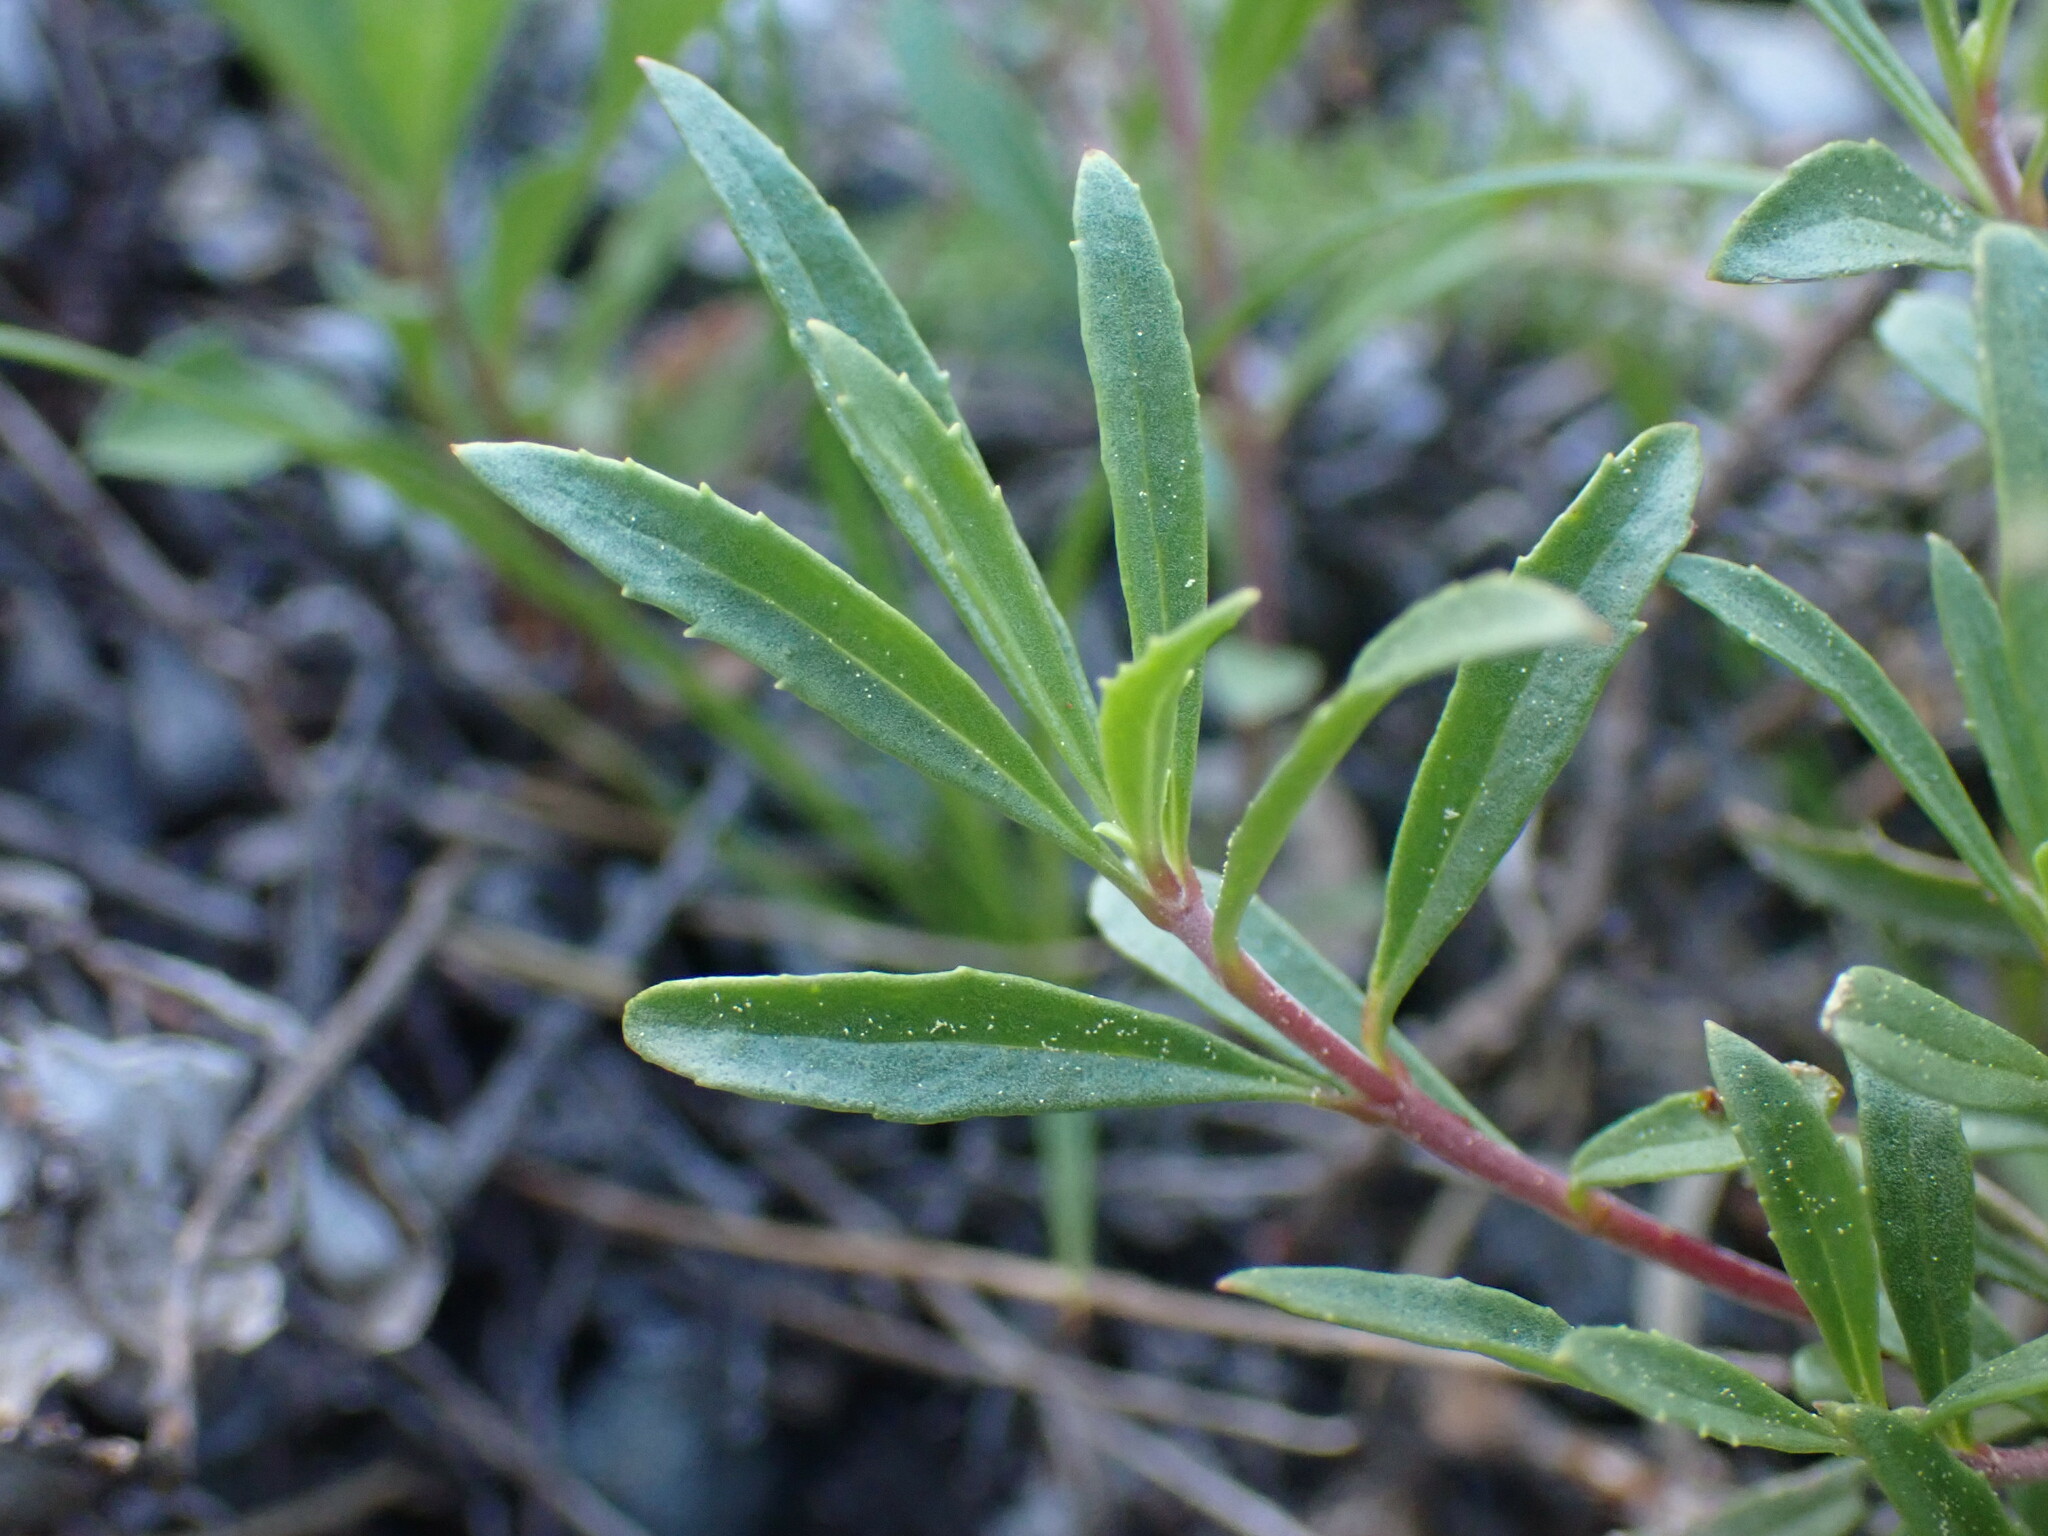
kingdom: Plantae
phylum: Tracheophyta
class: Magnoliopsida
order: Lamiales
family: Plantaginaceae
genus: Penstemon
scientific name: Penstemon fruticosus
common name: Bush penstemon
